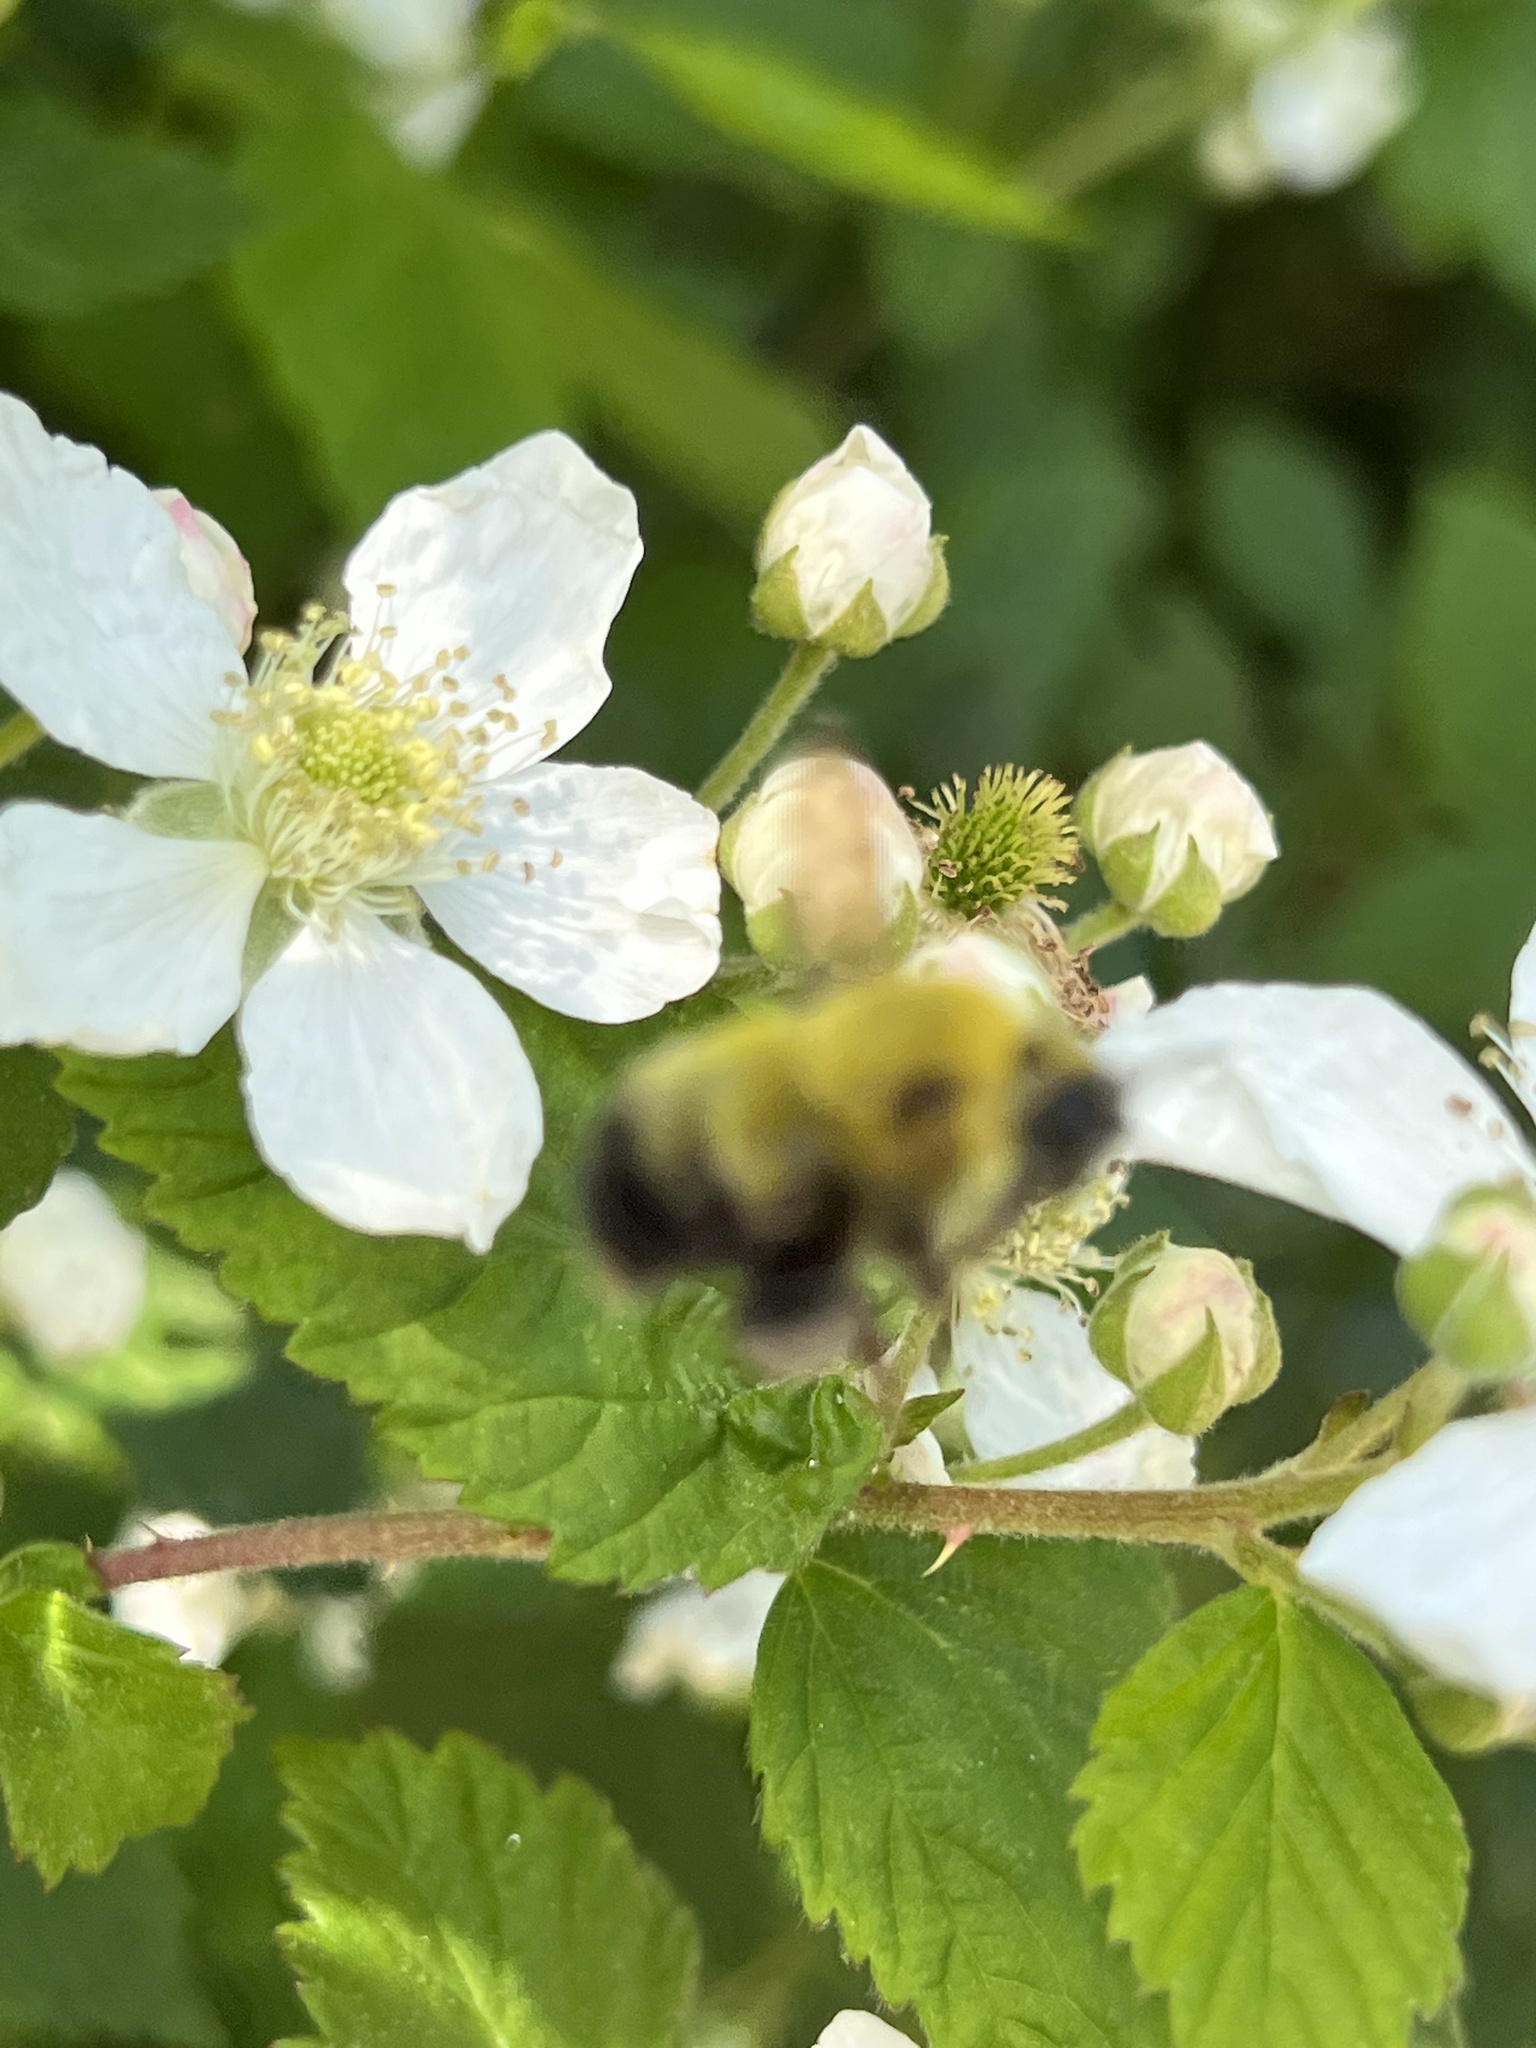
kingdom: Animalia
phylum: Arthropoda
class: Insecta
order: Hymenoptera
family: Apidae
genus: Bombus
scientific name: Bombus perplexus
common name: Confusing bumble bee
